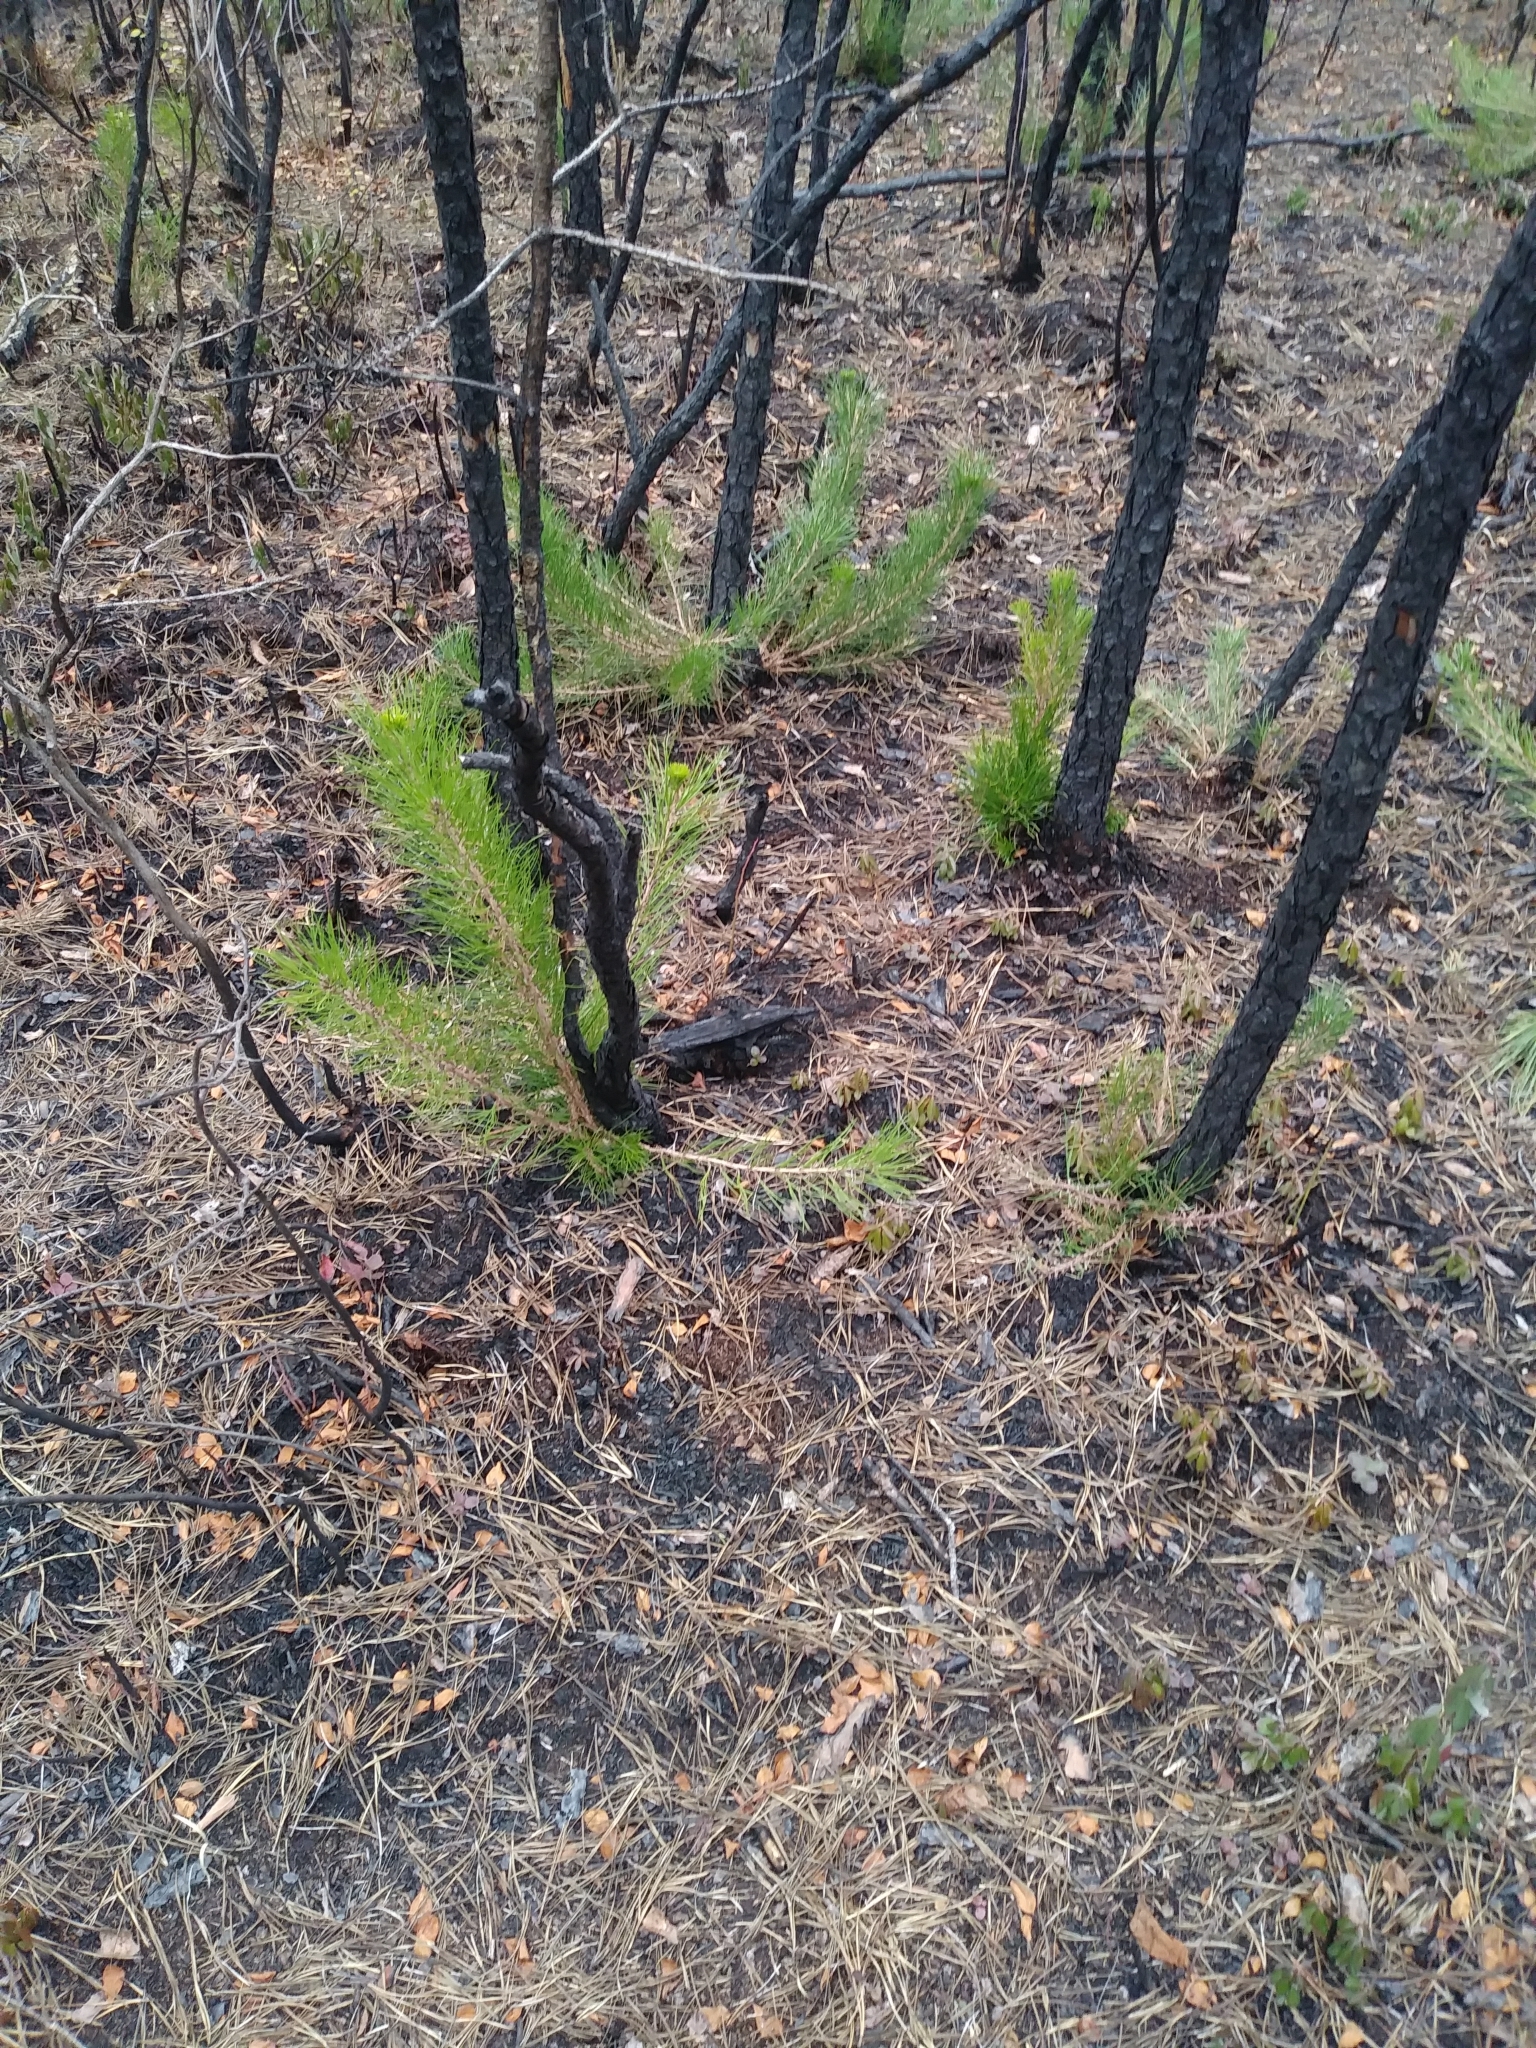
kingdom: Plantae
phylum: Tracheophyta
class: Pinopsida
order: Pinales
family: Pinaceae
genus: Pinus
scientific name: Pinus rigida
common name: Pitch pine
